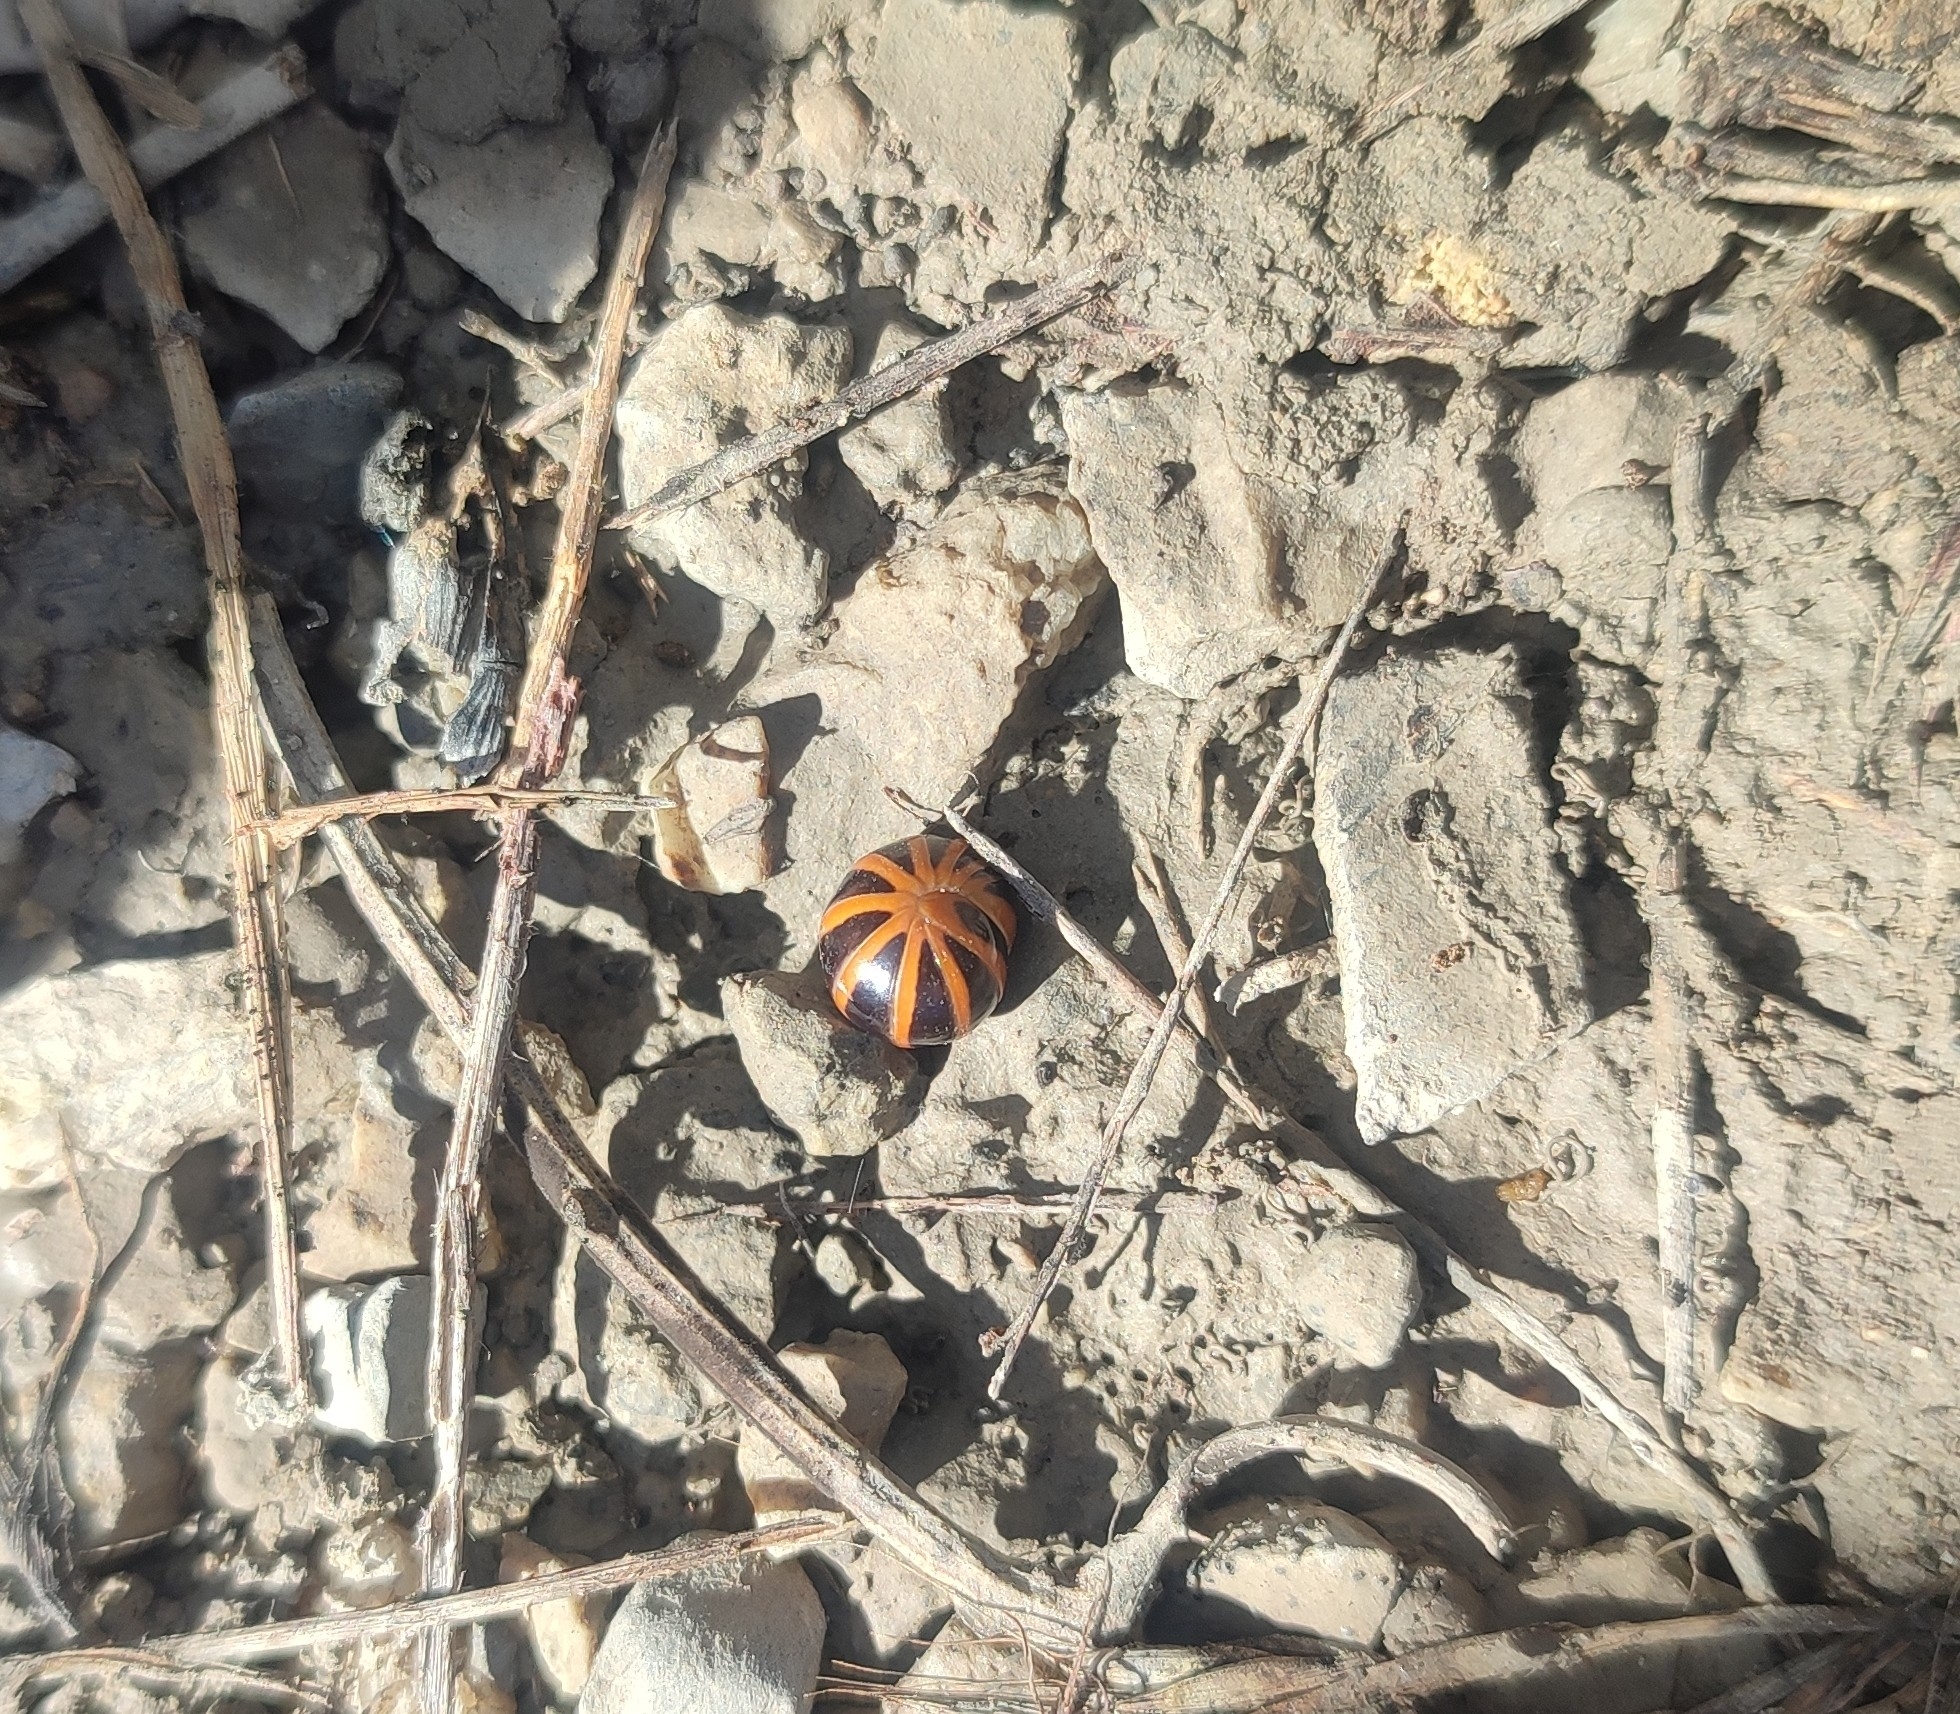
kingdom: Animalia
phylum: Arthropoda
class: Diplopoda
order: Glomerida
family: Glomeridae
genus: Glomeris
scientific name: Glomeris annulata
